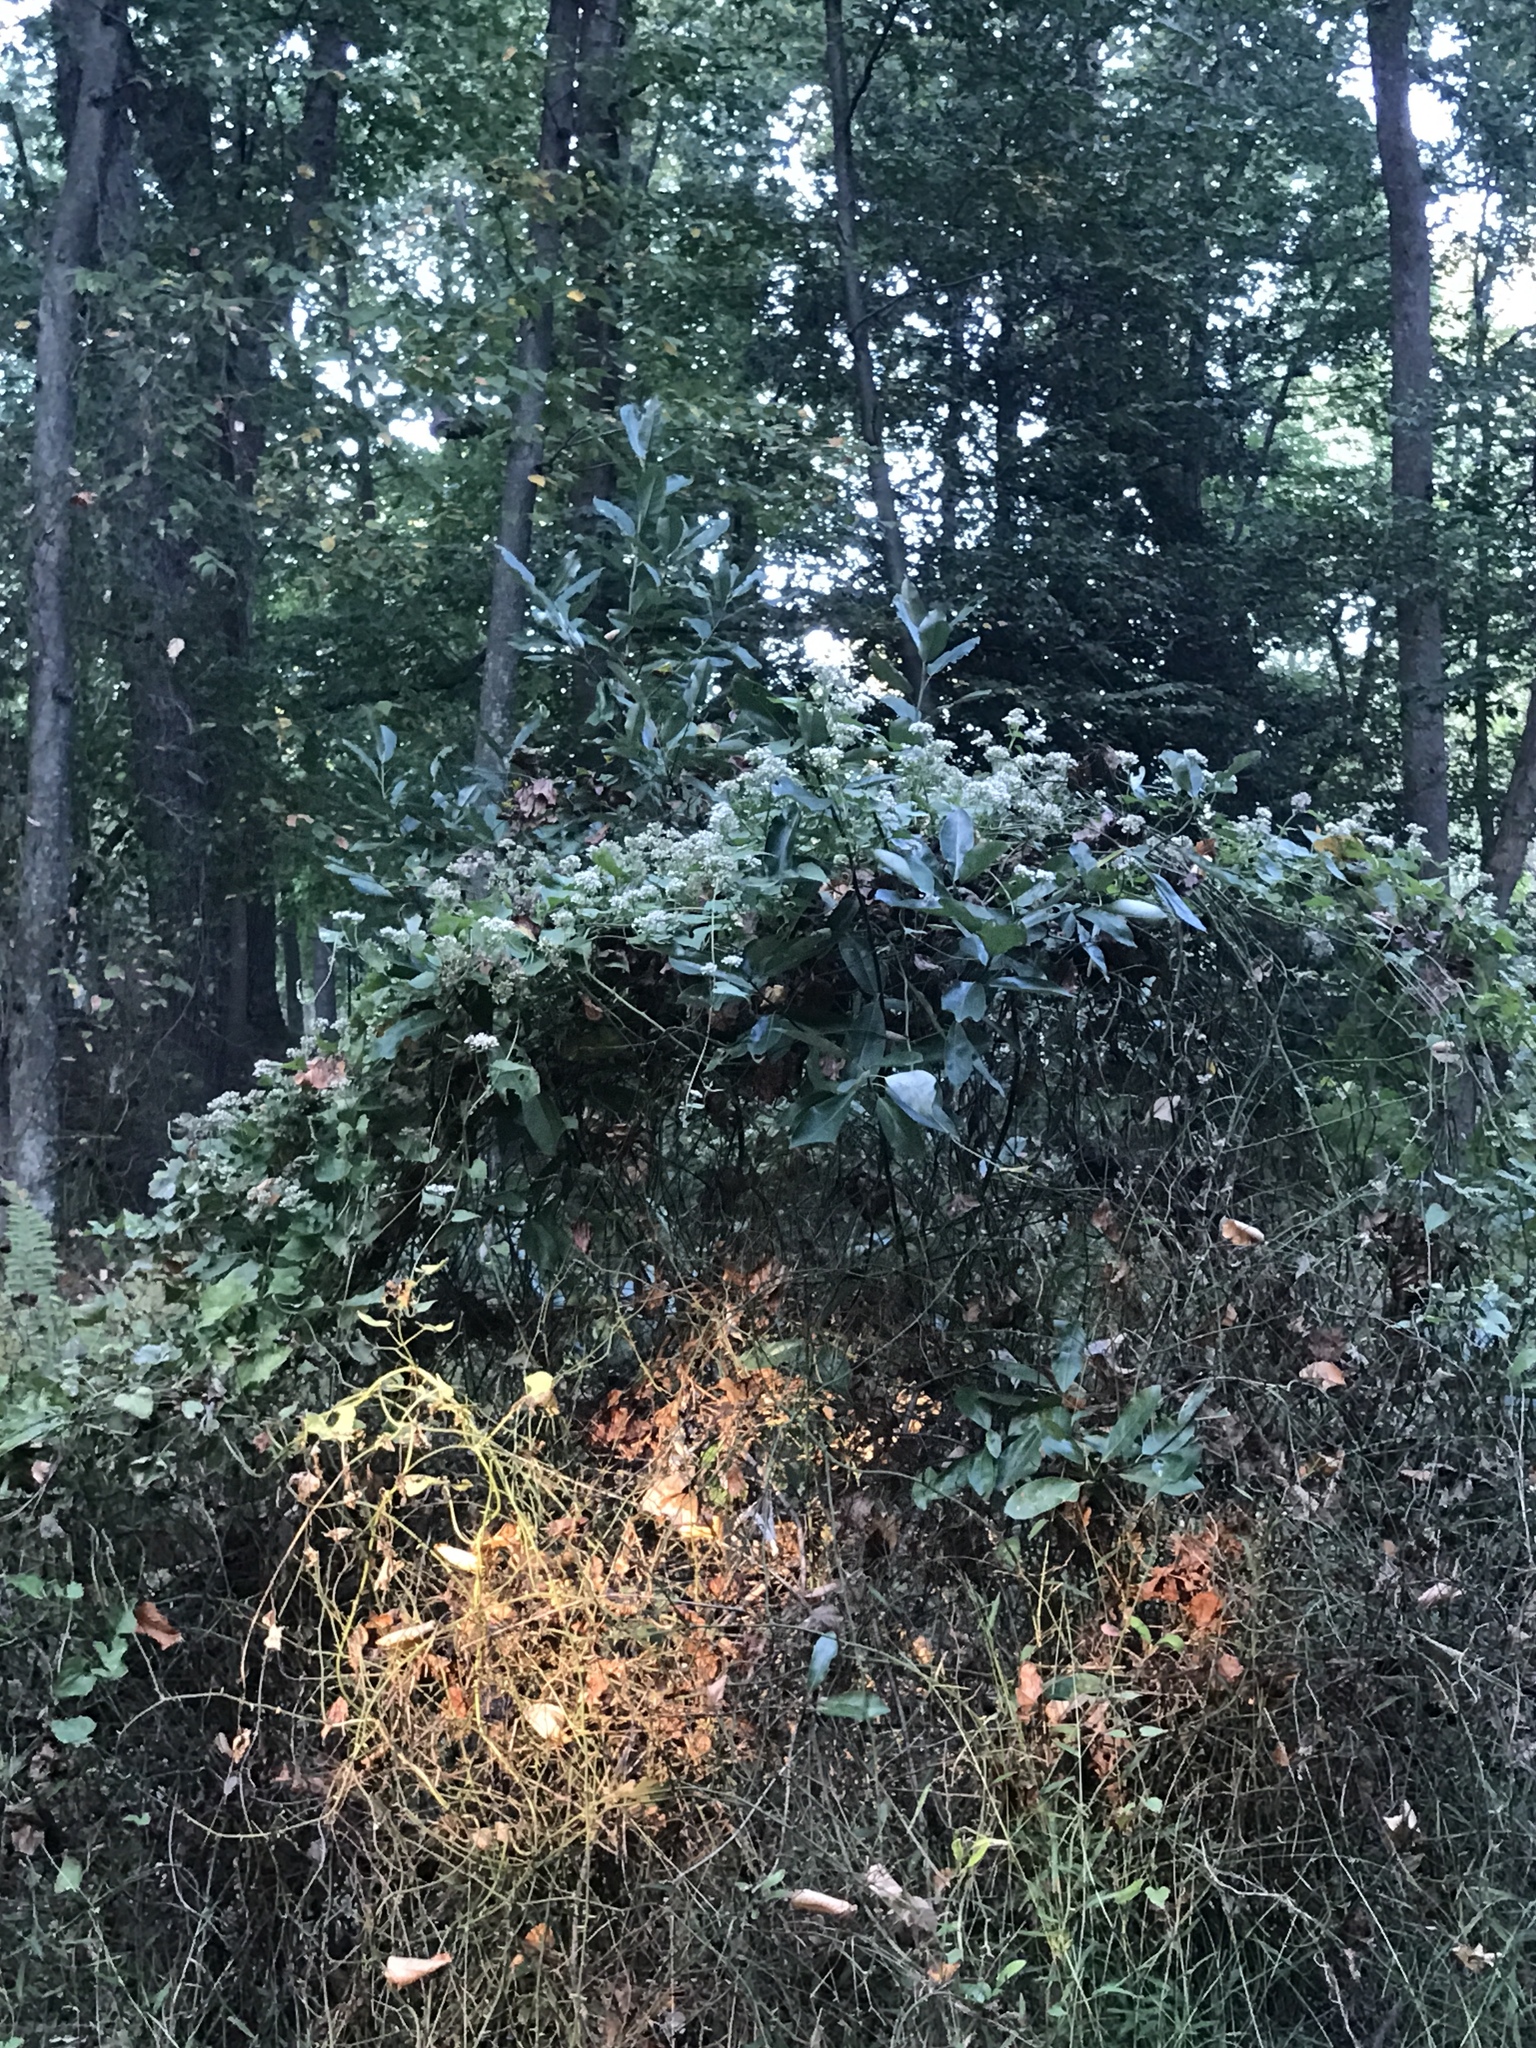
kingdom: Plantae
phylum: Tracheophyta
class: Magnoliopsida
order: Asterales
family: Asteraceae
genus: Mikania
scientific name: Mikania scandens
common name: Climbing hempvine
